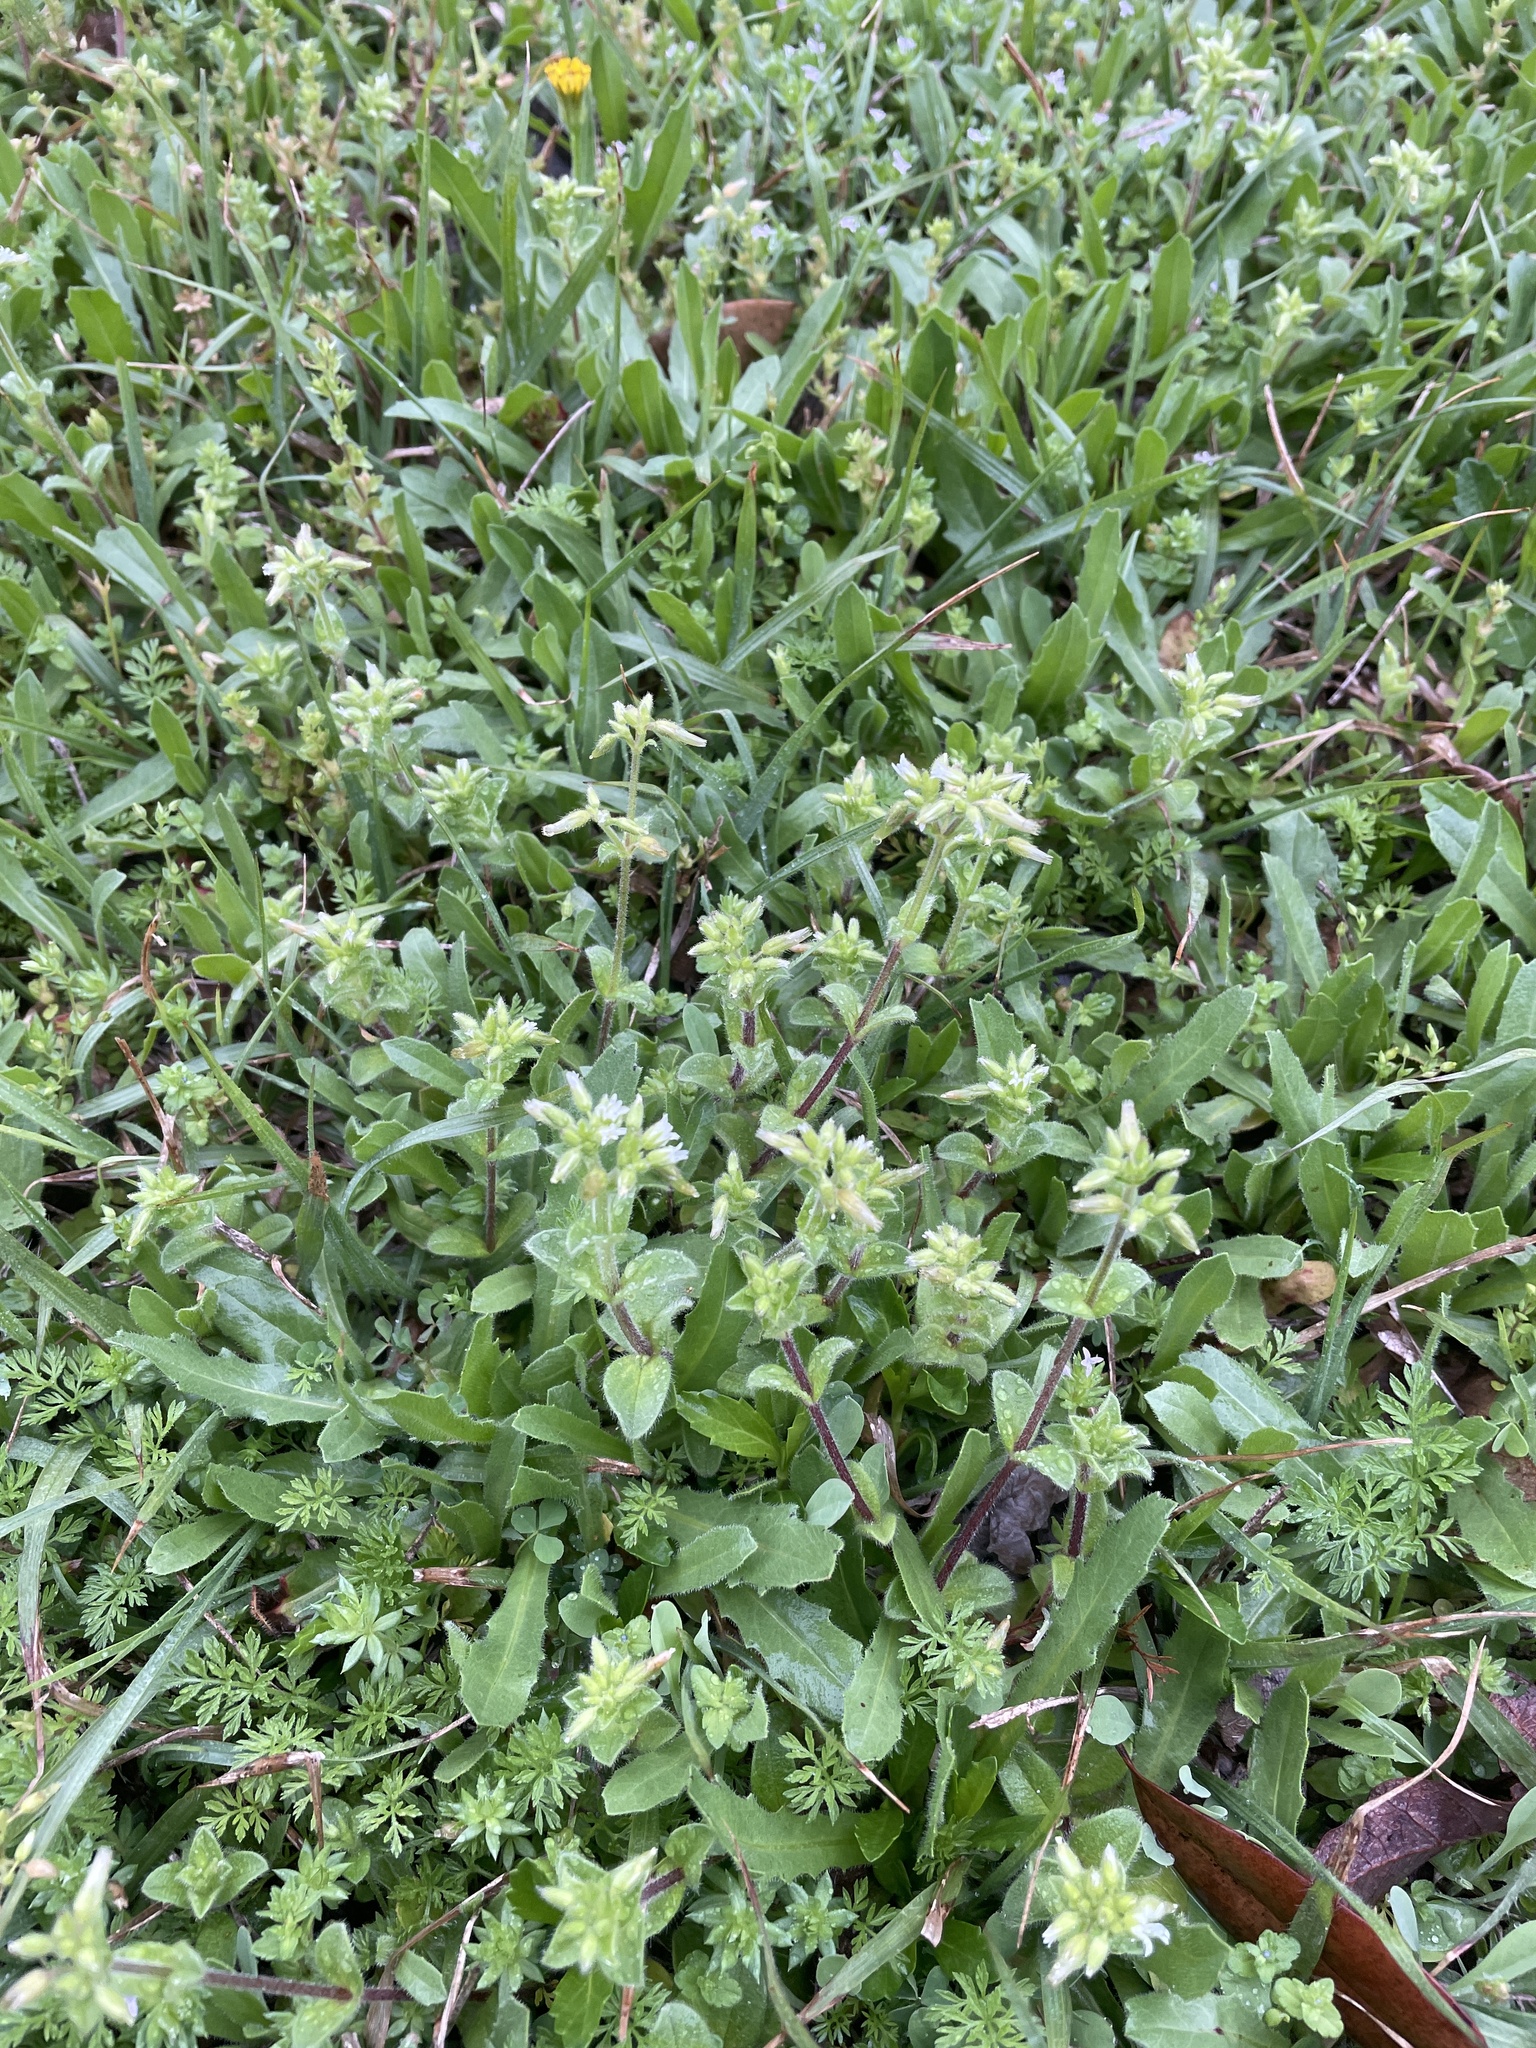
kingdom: Plantae
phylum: Tracheophyta
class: Magnoliopsida
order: Caryophyllales
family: Caryophyllaceae
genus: Cerastium
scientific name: Cerastium glomeratum
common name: Sticky chickweed
